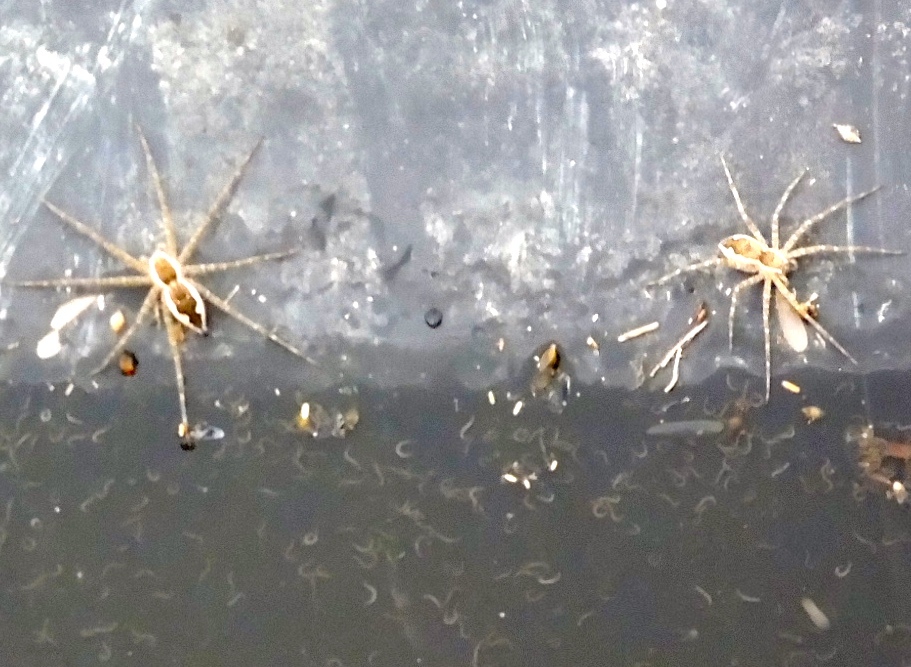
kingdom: Animalia
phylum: Arthropoda
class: Arachnida
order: Araneae
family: Pisauridae
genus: Tinus
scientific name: Tinus
